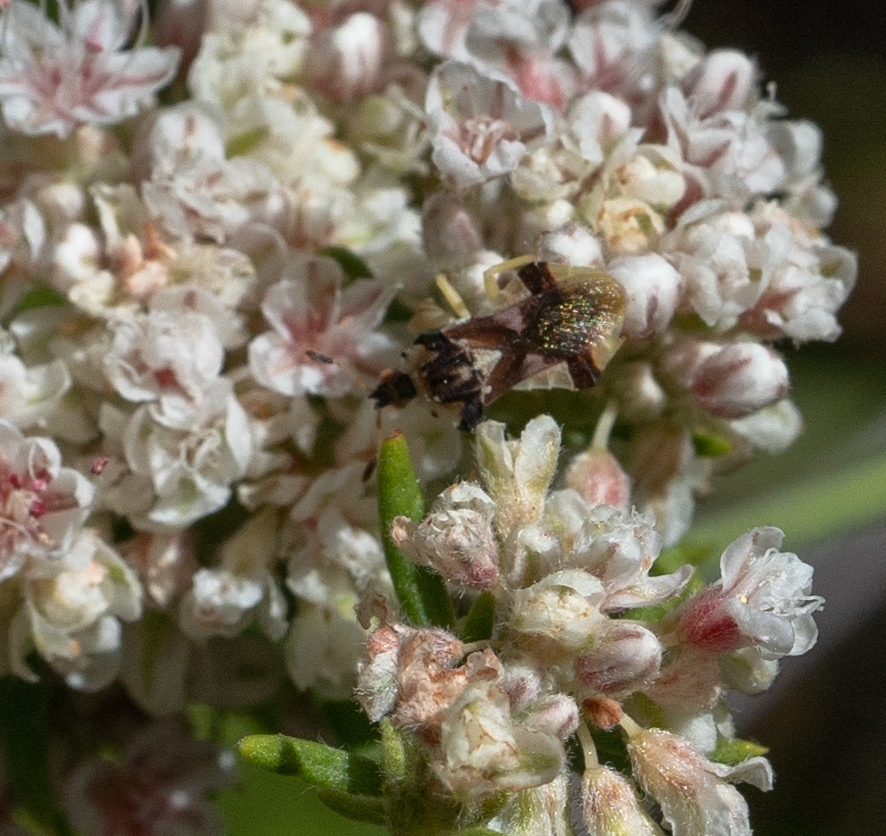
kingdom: Animalia
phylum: Arthropoda
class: Insecta
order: Hemiptera
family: Reduviidae
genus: Phymata
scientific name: Phymata pacifica
